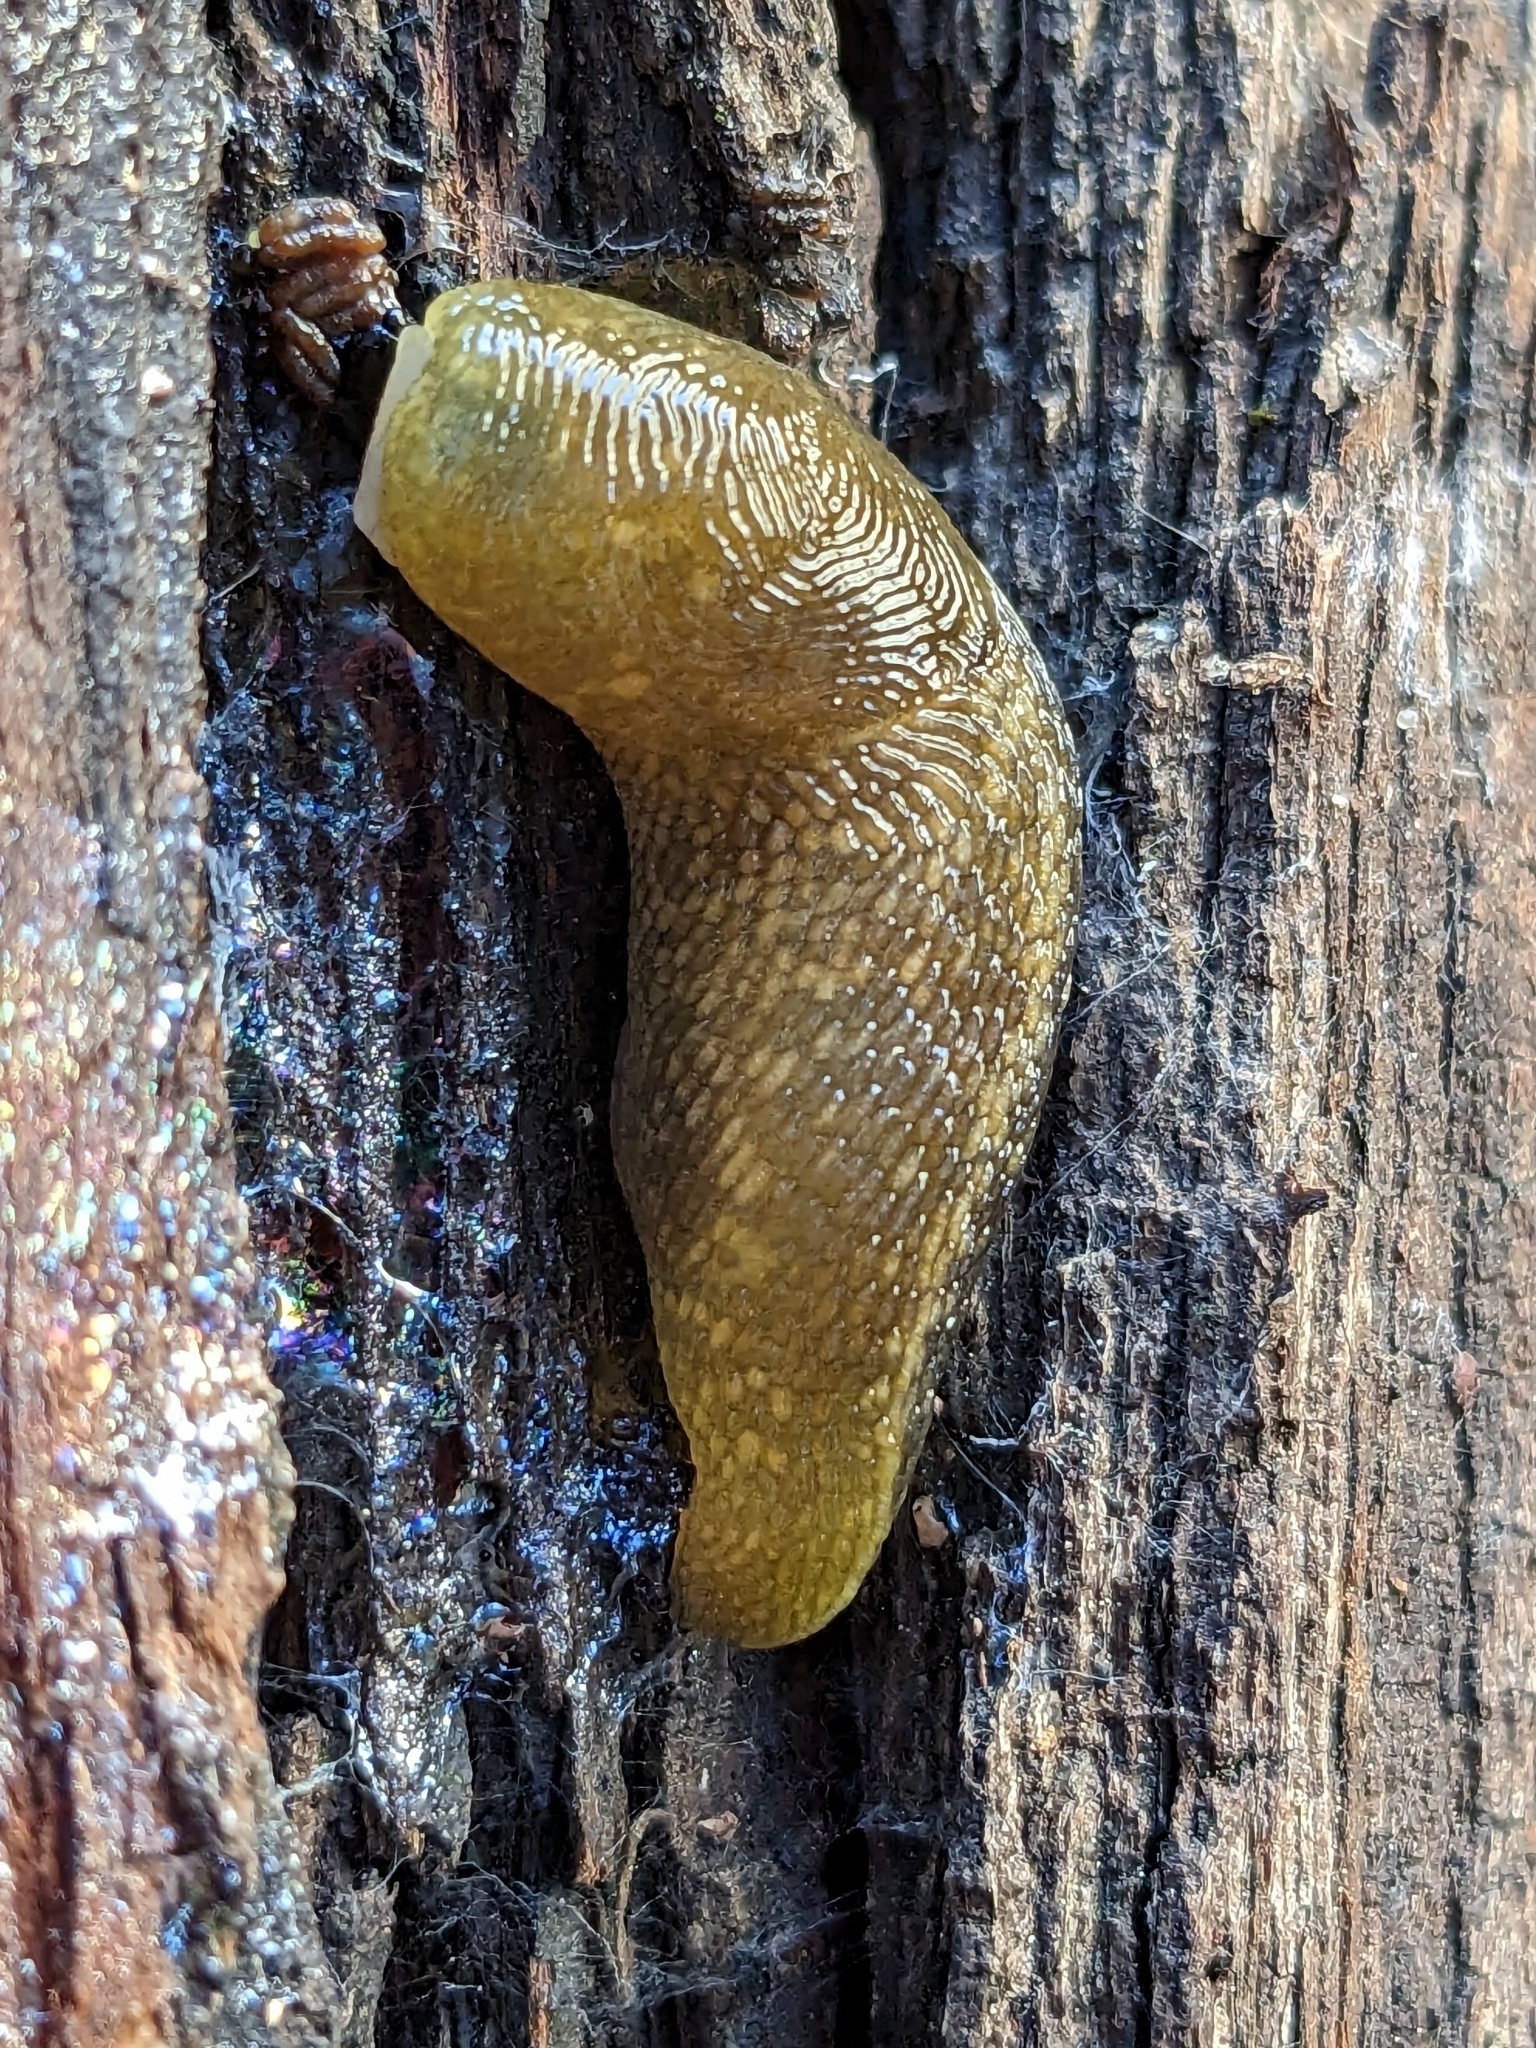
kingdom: Animalia
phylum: Mollusca
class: Gastropoda
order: Stylommatophora
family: Limacidae
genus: Limacus
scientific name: Limacus flavus
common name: Yellow gardenslug
